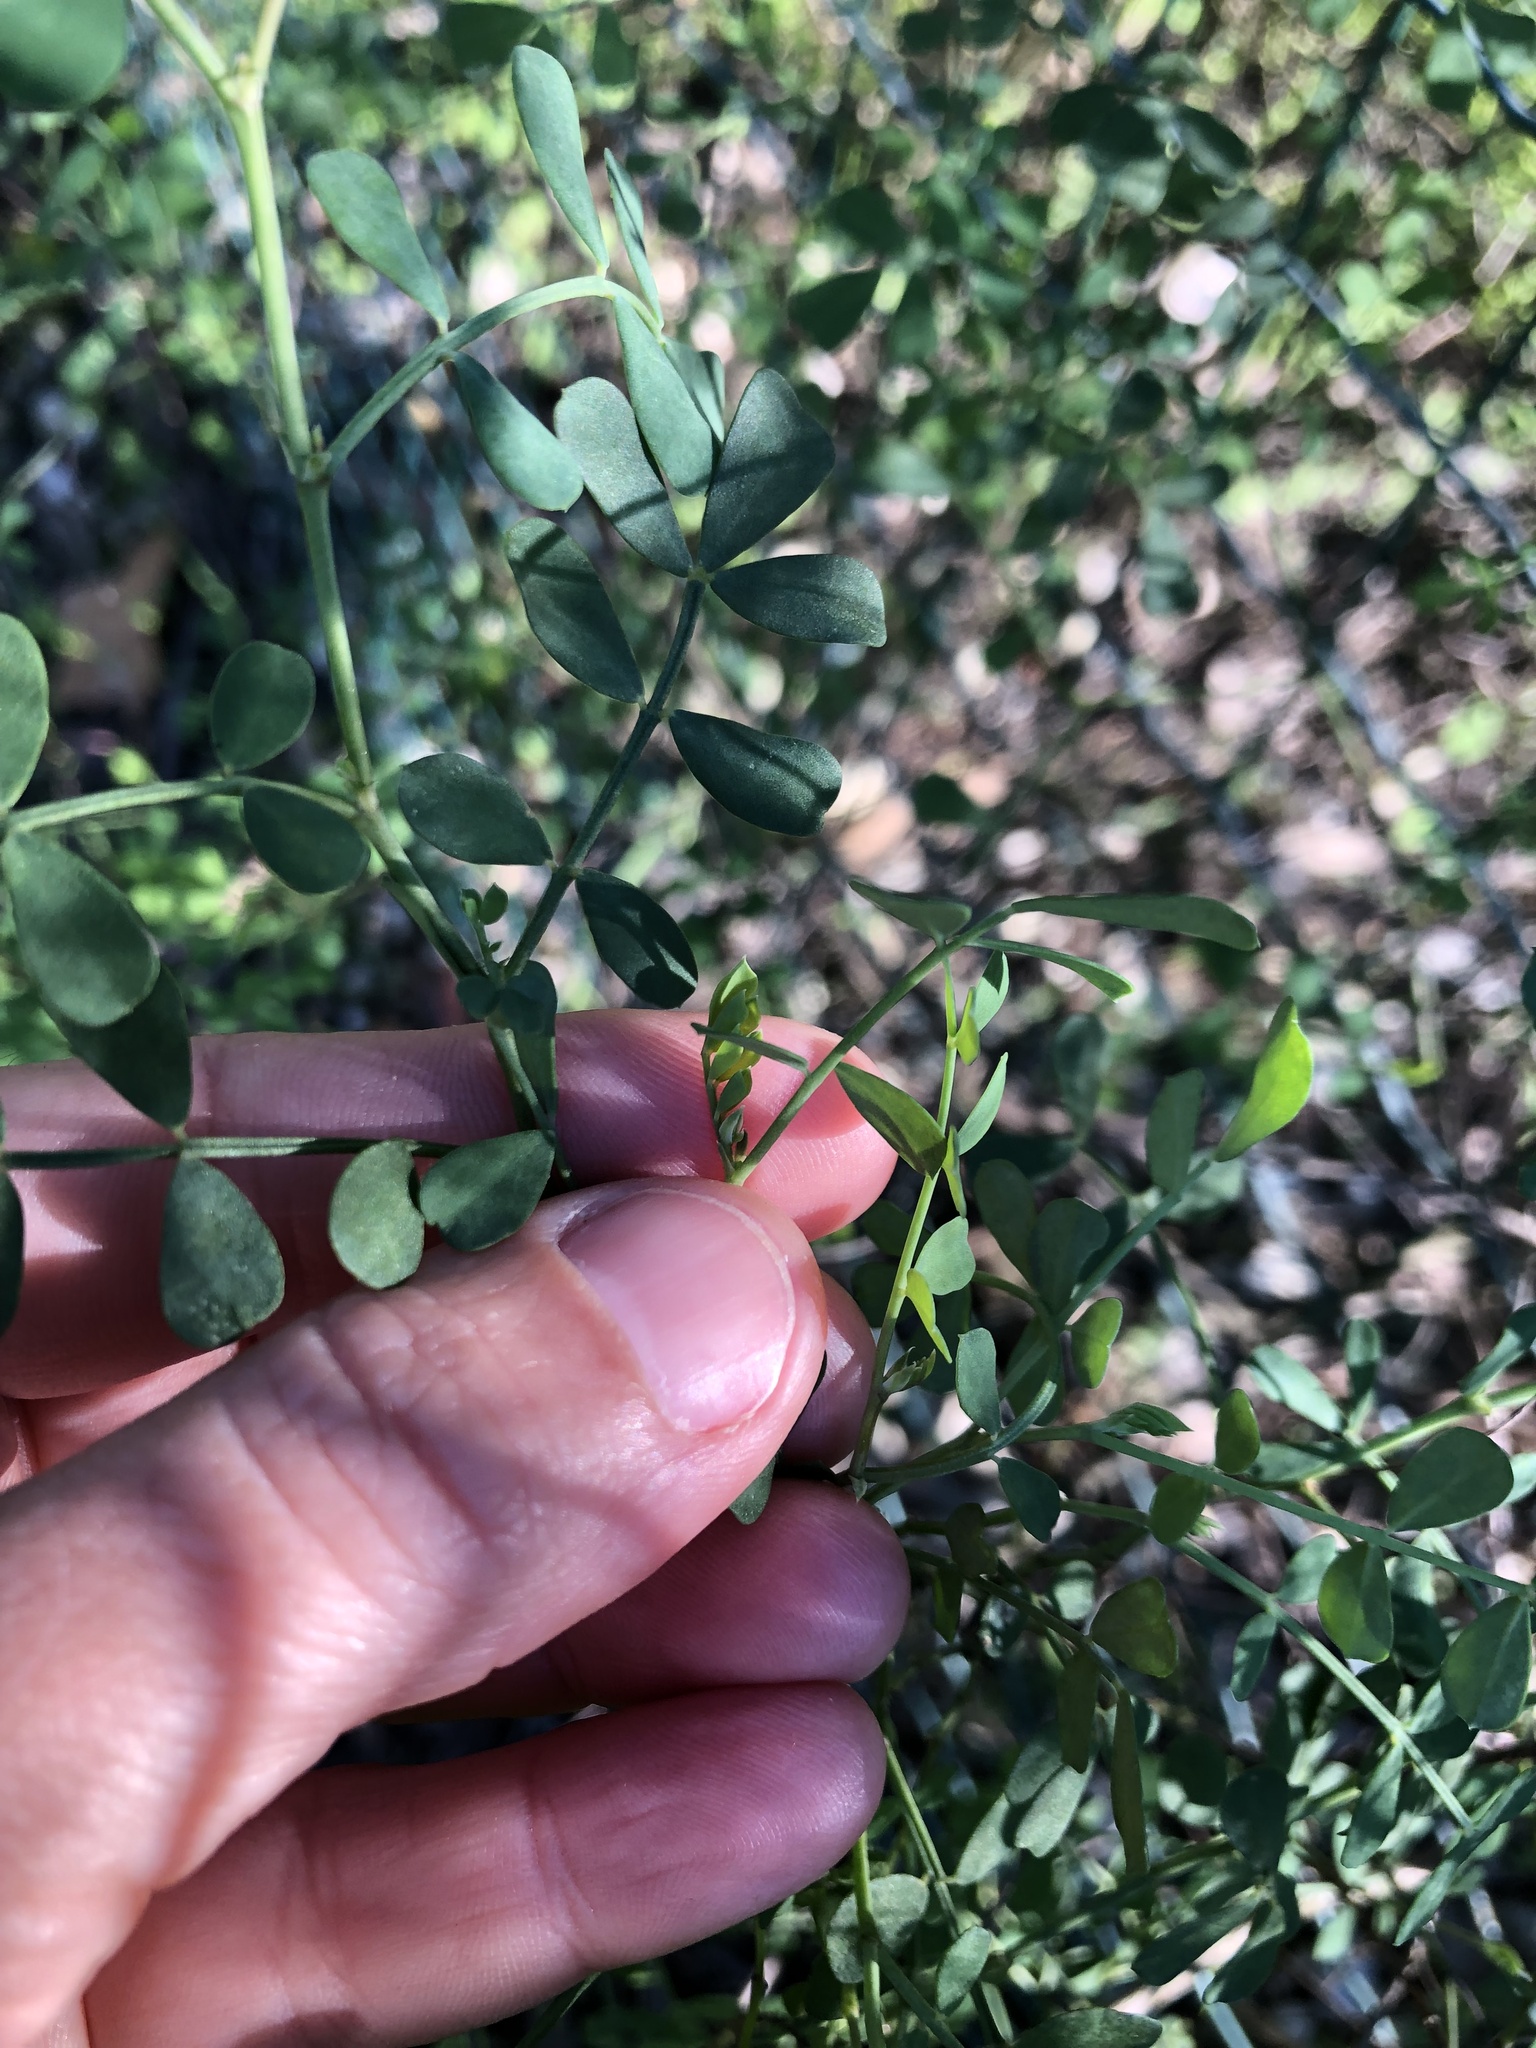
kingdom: Plantae
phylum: Tracheophyta
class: Magnoliopsida
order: Fabales
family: Fabaceae
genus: Coronilla
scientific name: Coronilla valentina
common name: Shrubby scorpion-vetch
